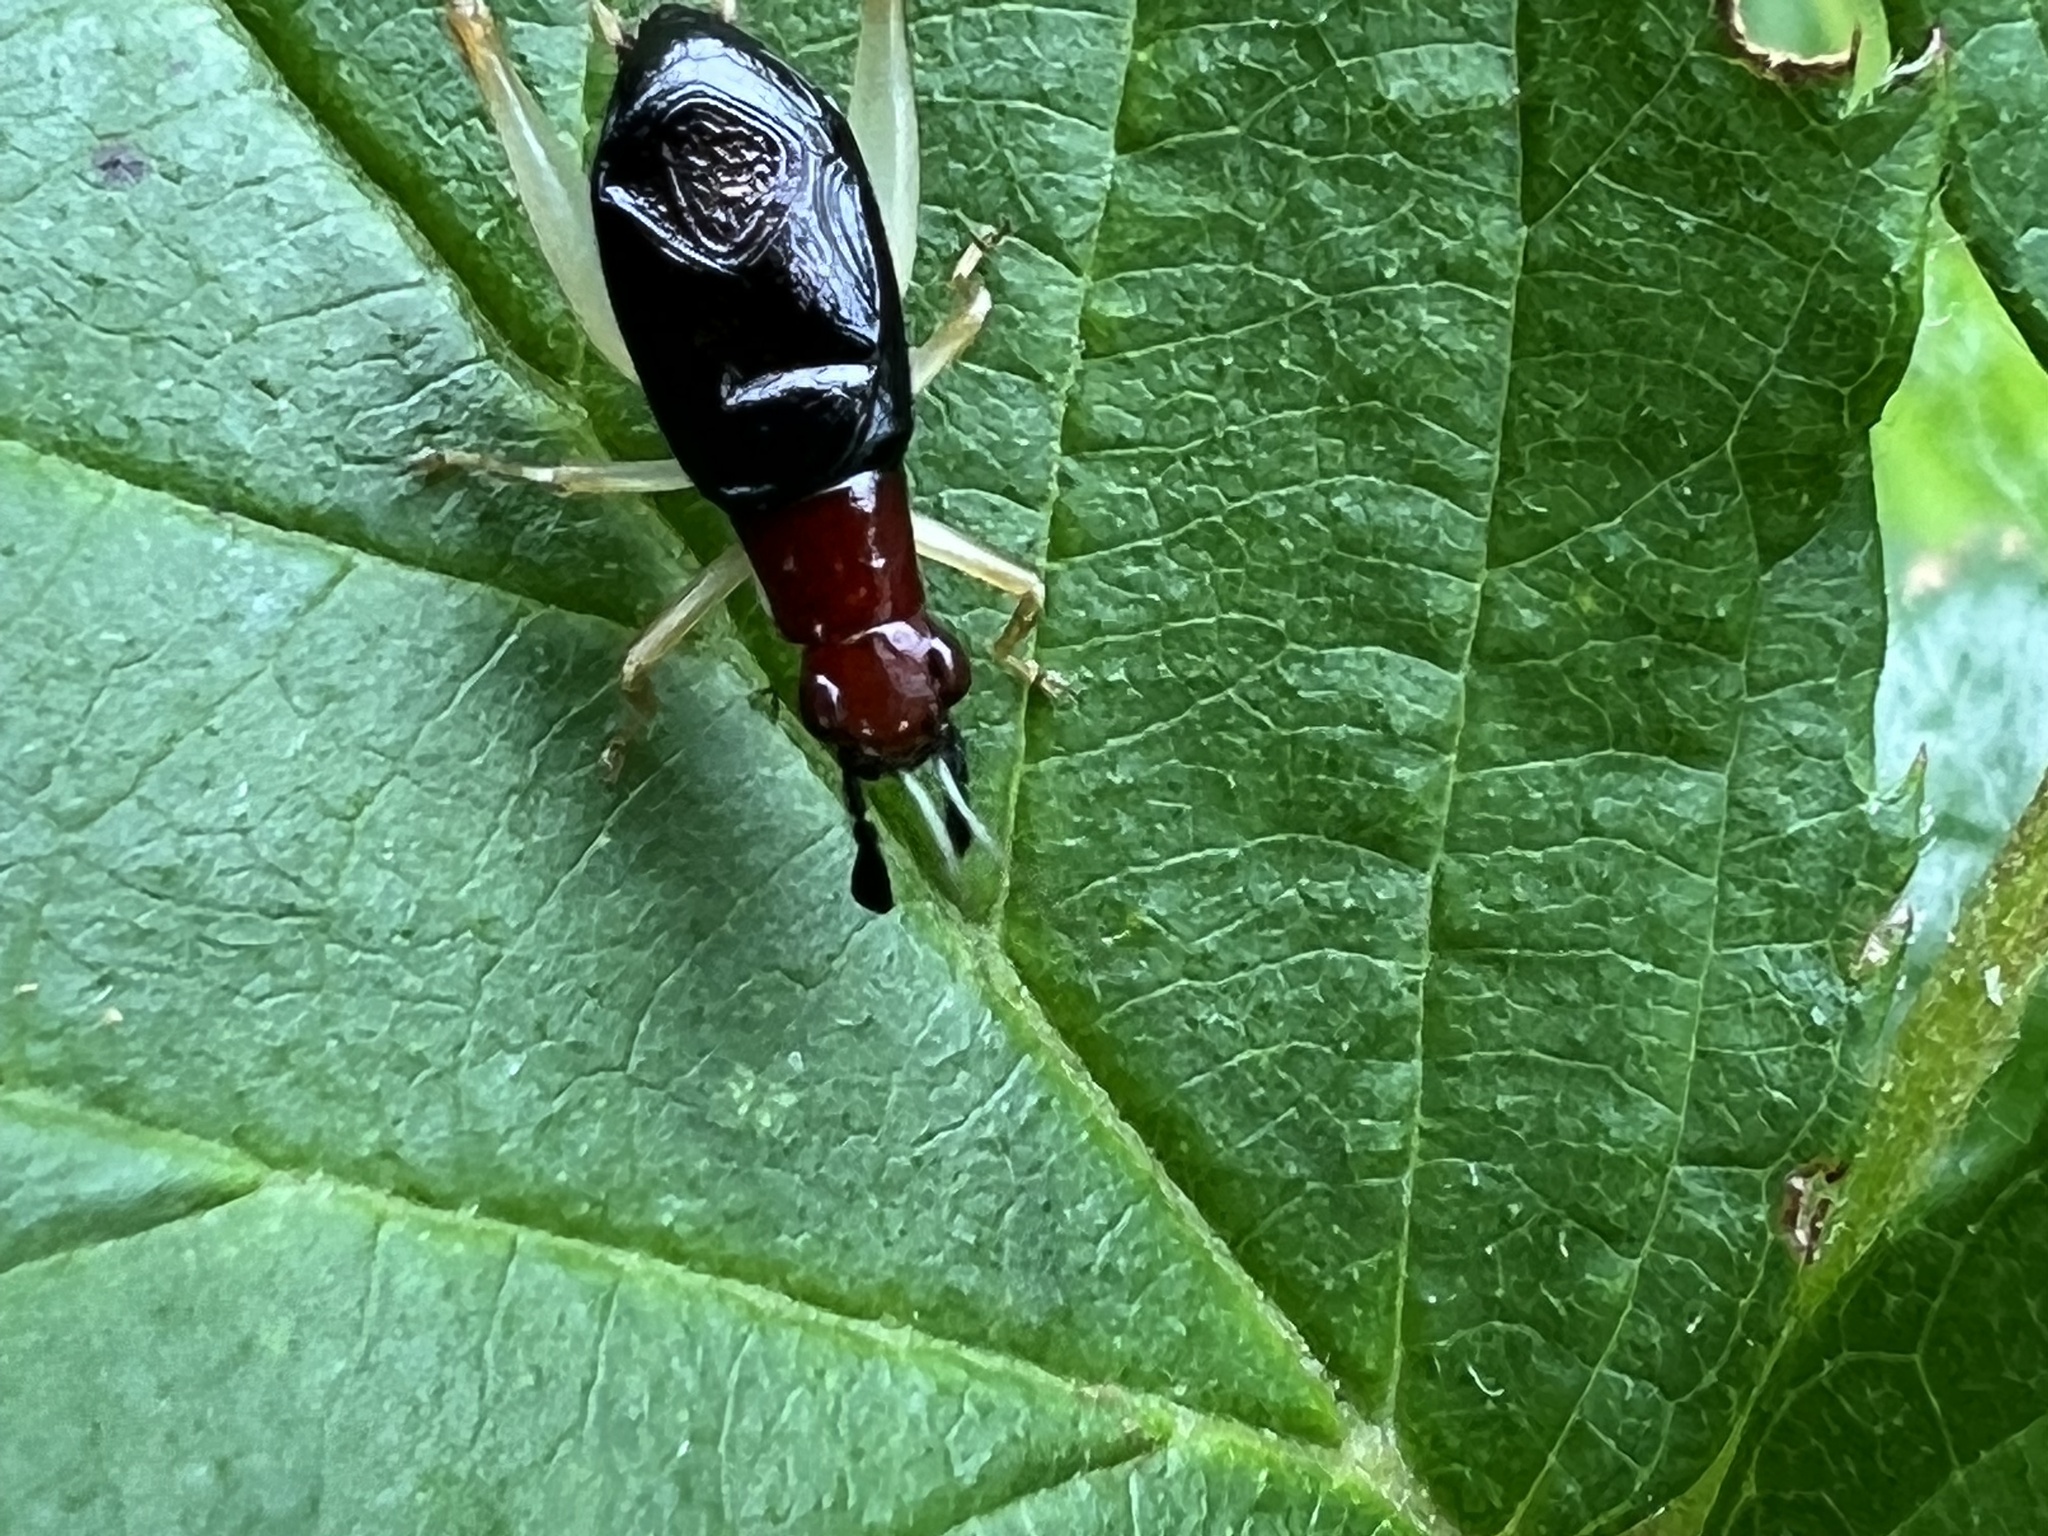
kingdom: Animalia
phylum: Arthropoda
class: Insecta
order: Orthoptera
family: Trigonidiidae
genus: Phyllopalpus
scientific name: Phyllopalpus pulchellus
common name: Handsome trig
